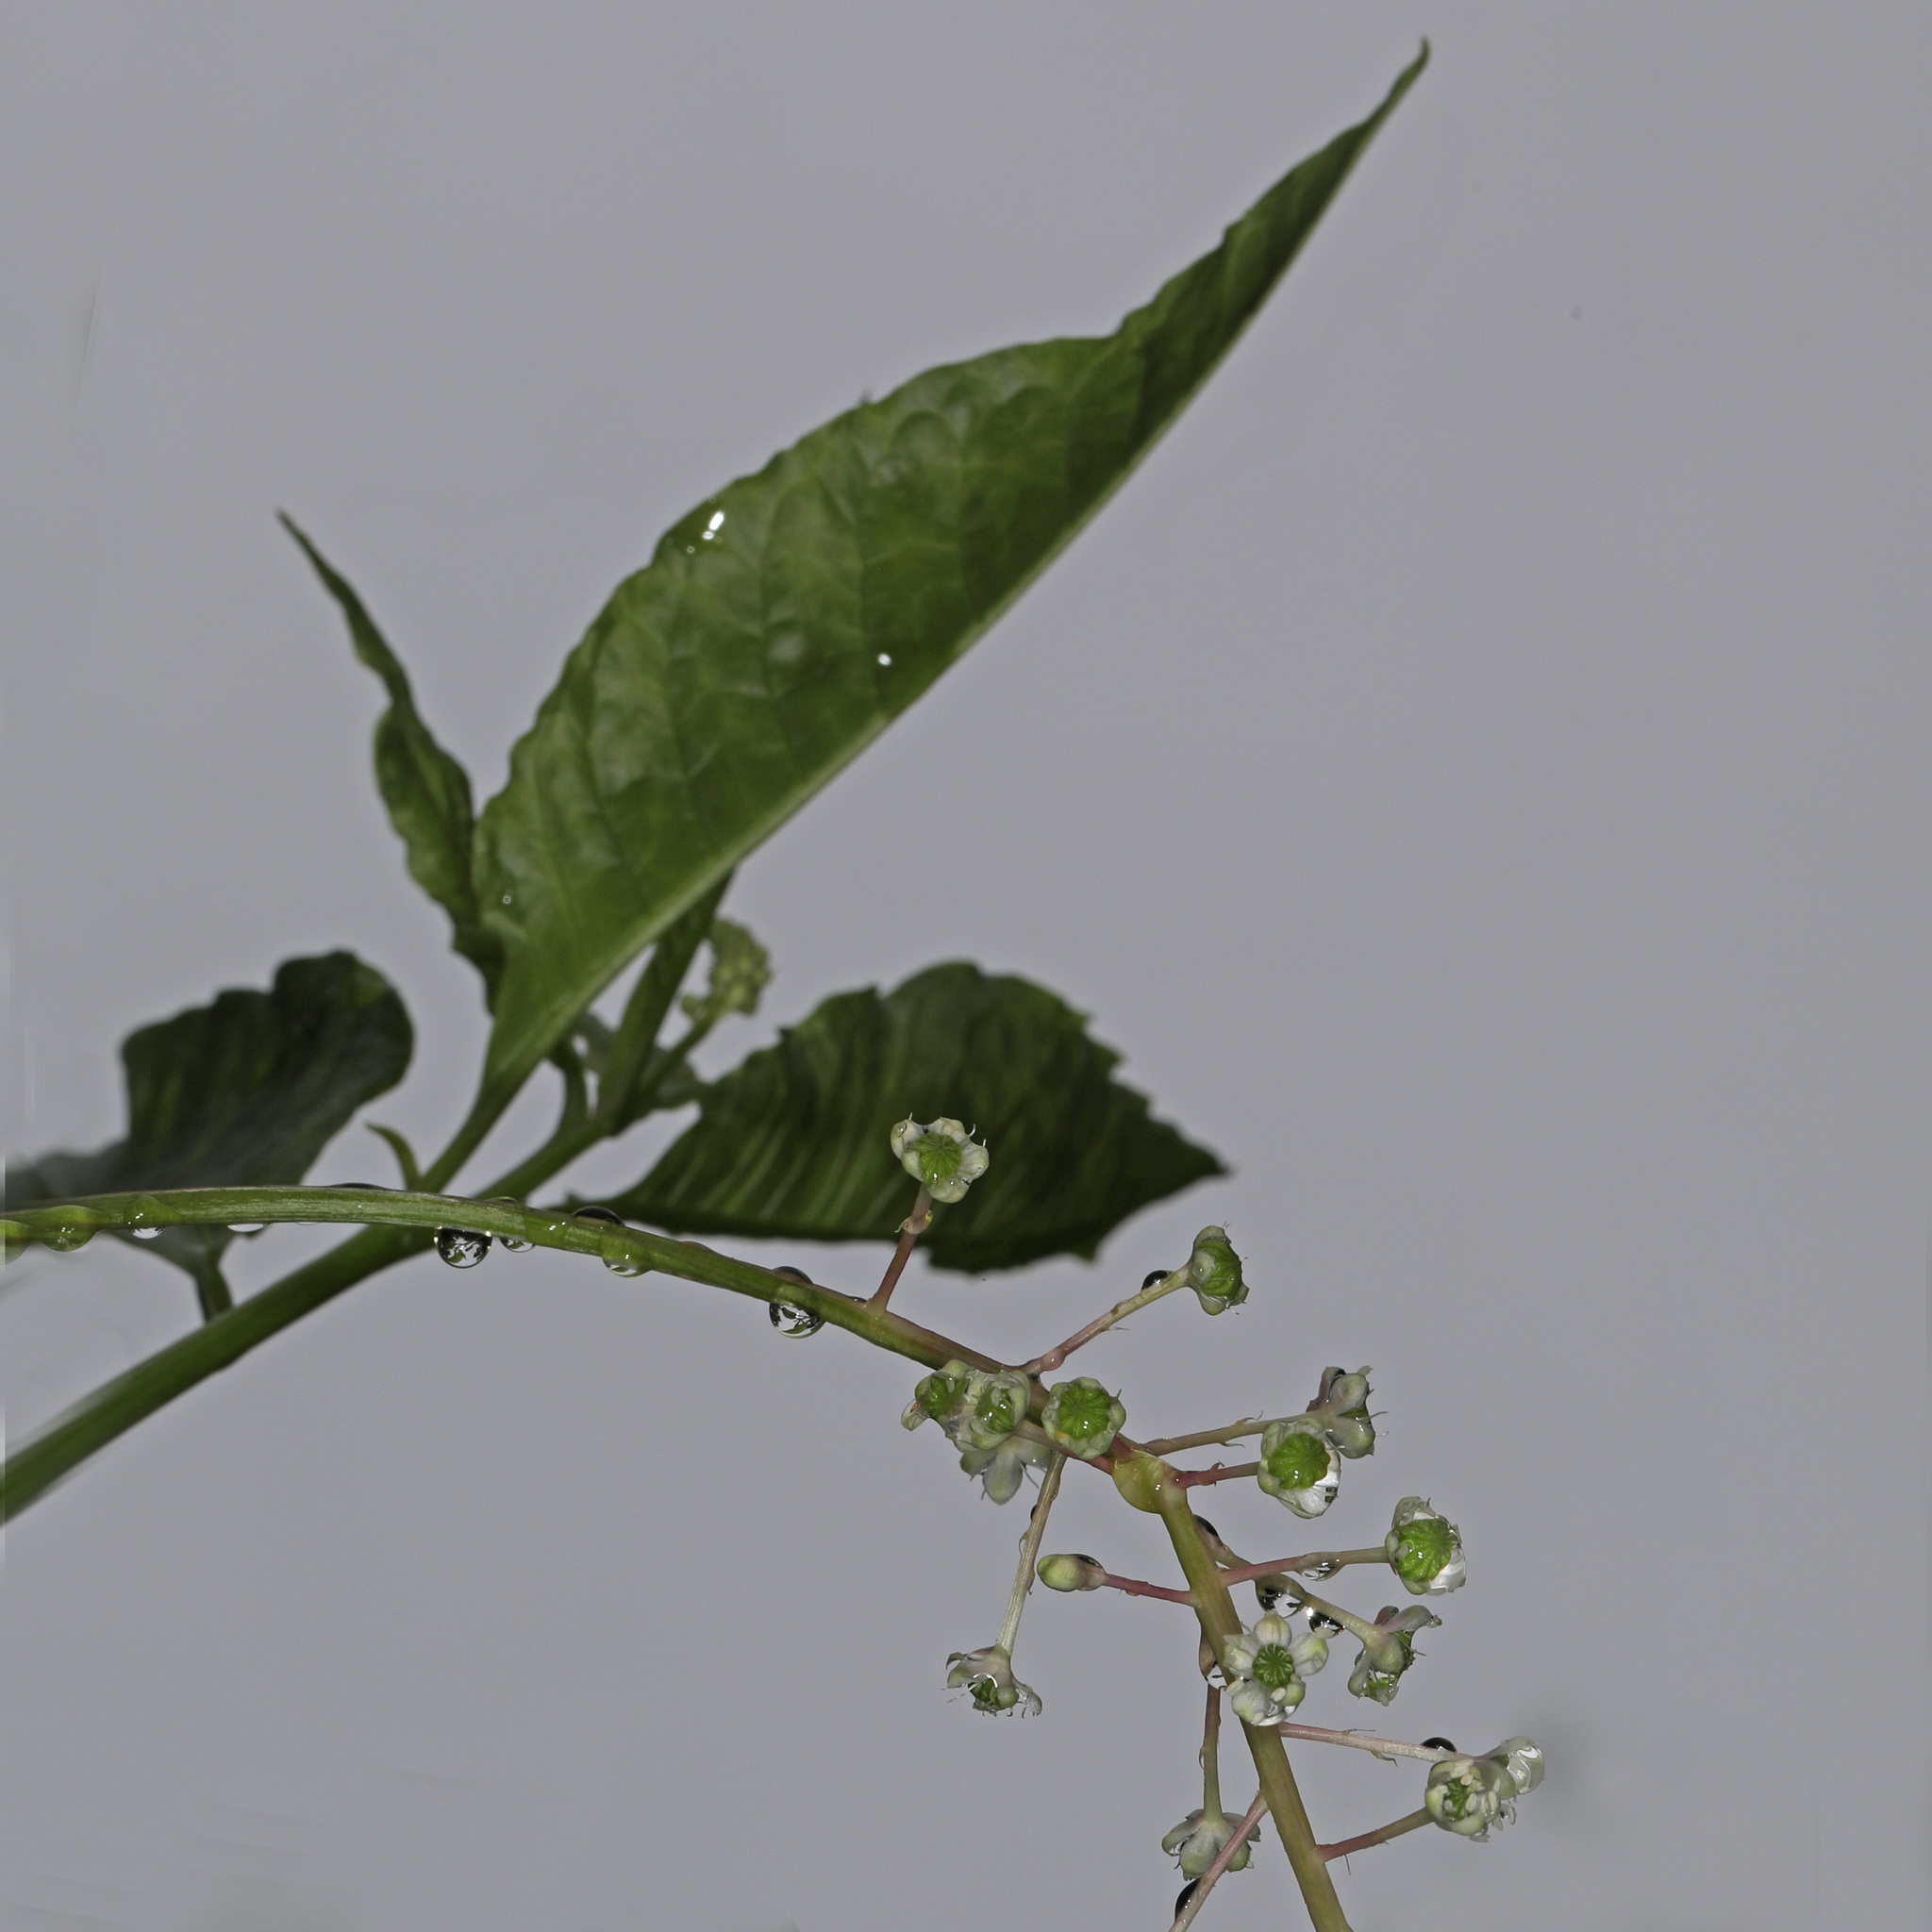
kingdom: Plantae
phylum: Tracheophyta
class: Magnoliopsida
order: Caryophyllales
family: Phytolaccaceae
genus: Phytolacca
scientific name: Phytolacca americana
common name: American pokeweed
